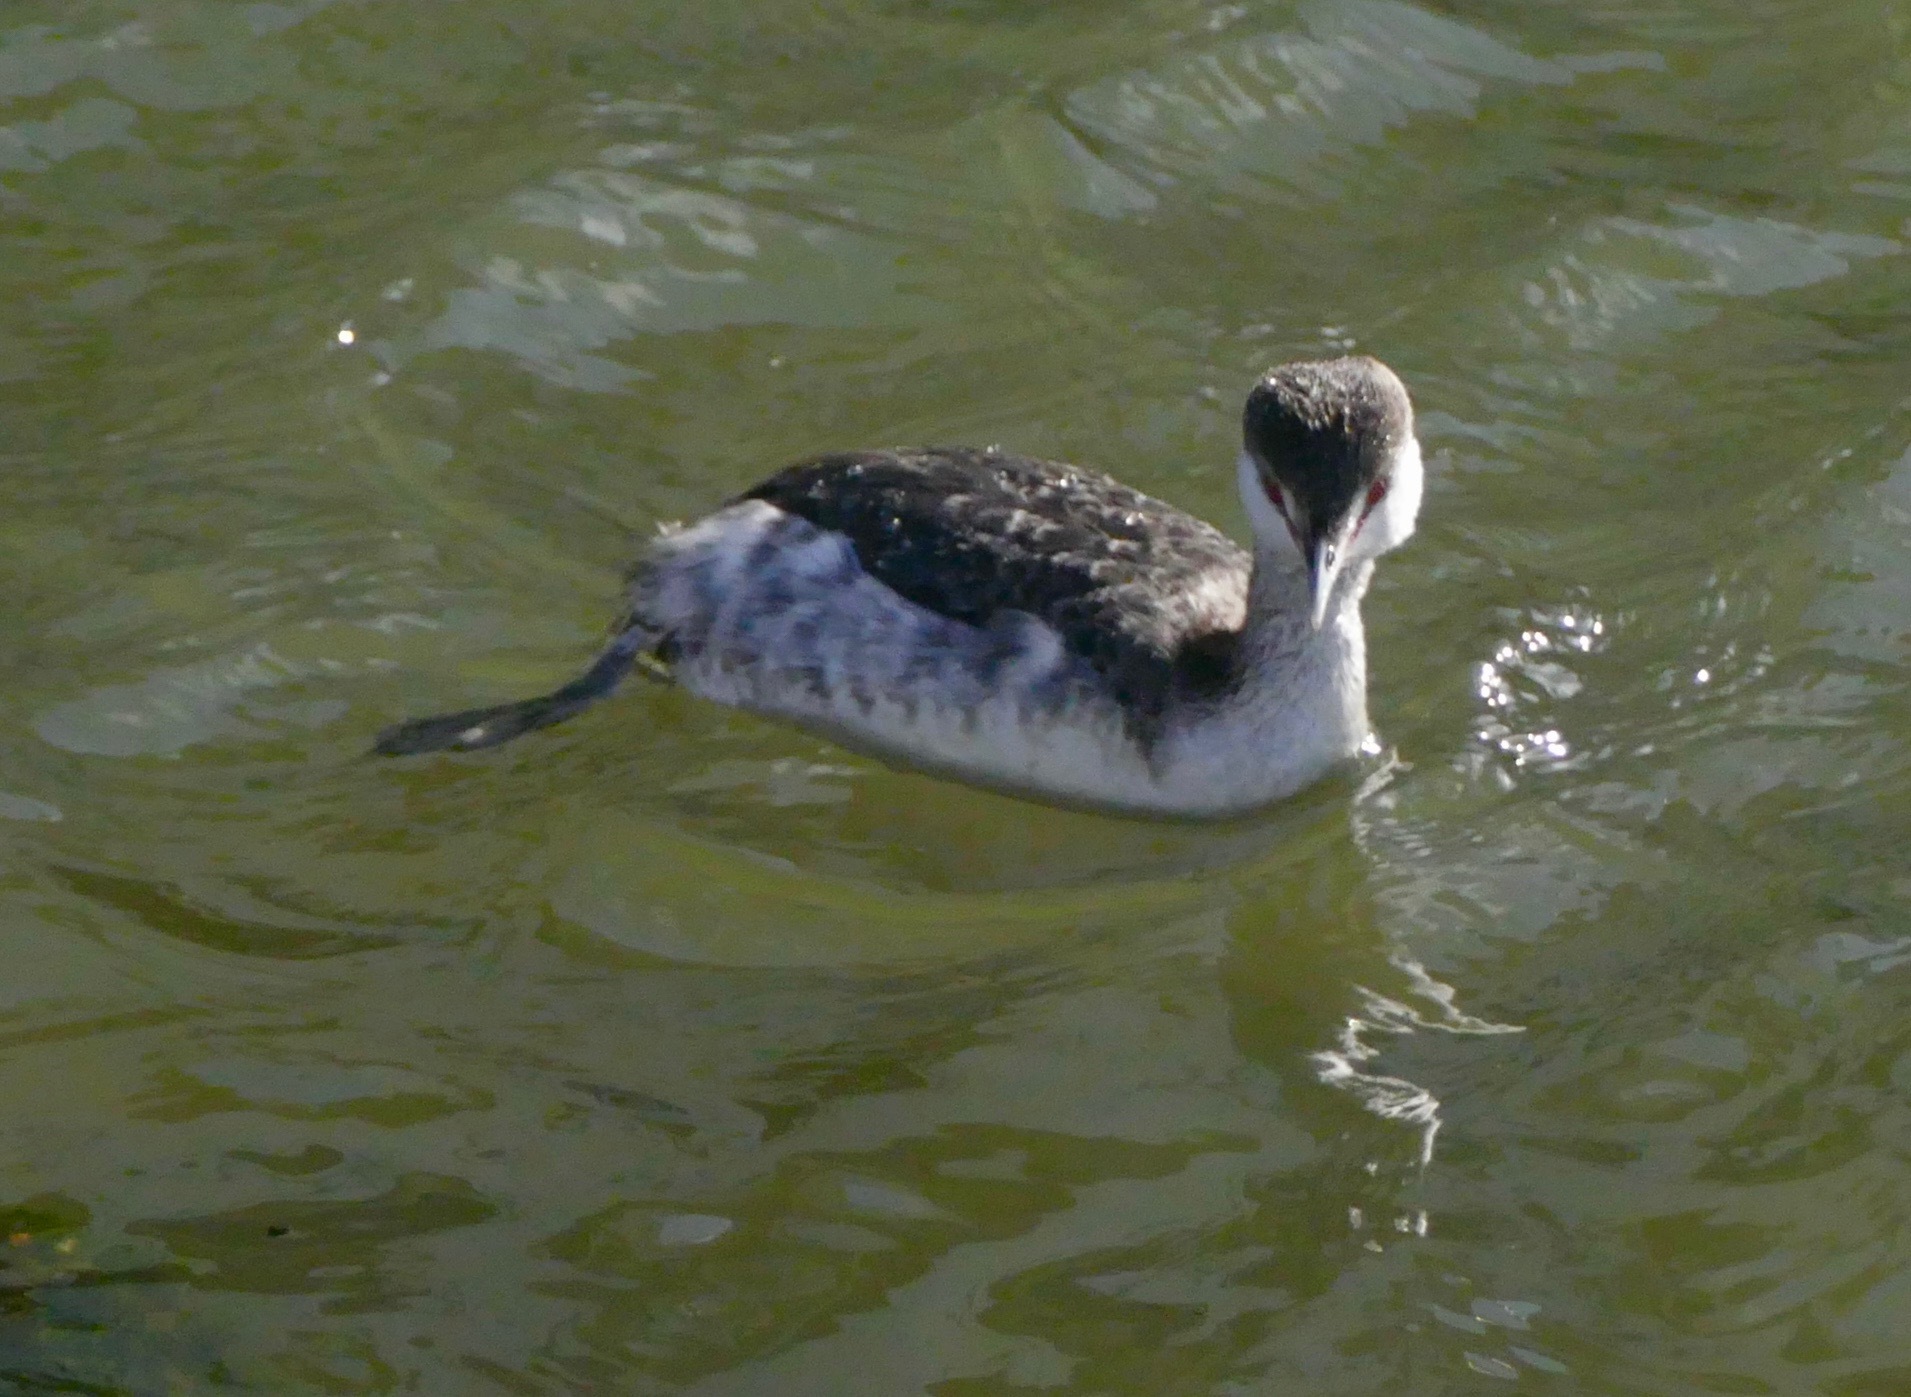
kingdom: Animalia
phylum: Chordata
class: Aves
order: Podicipediformes
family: Podicipedidae
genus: Podiceps
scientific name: Podiceps auritus
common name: Horned grebe
